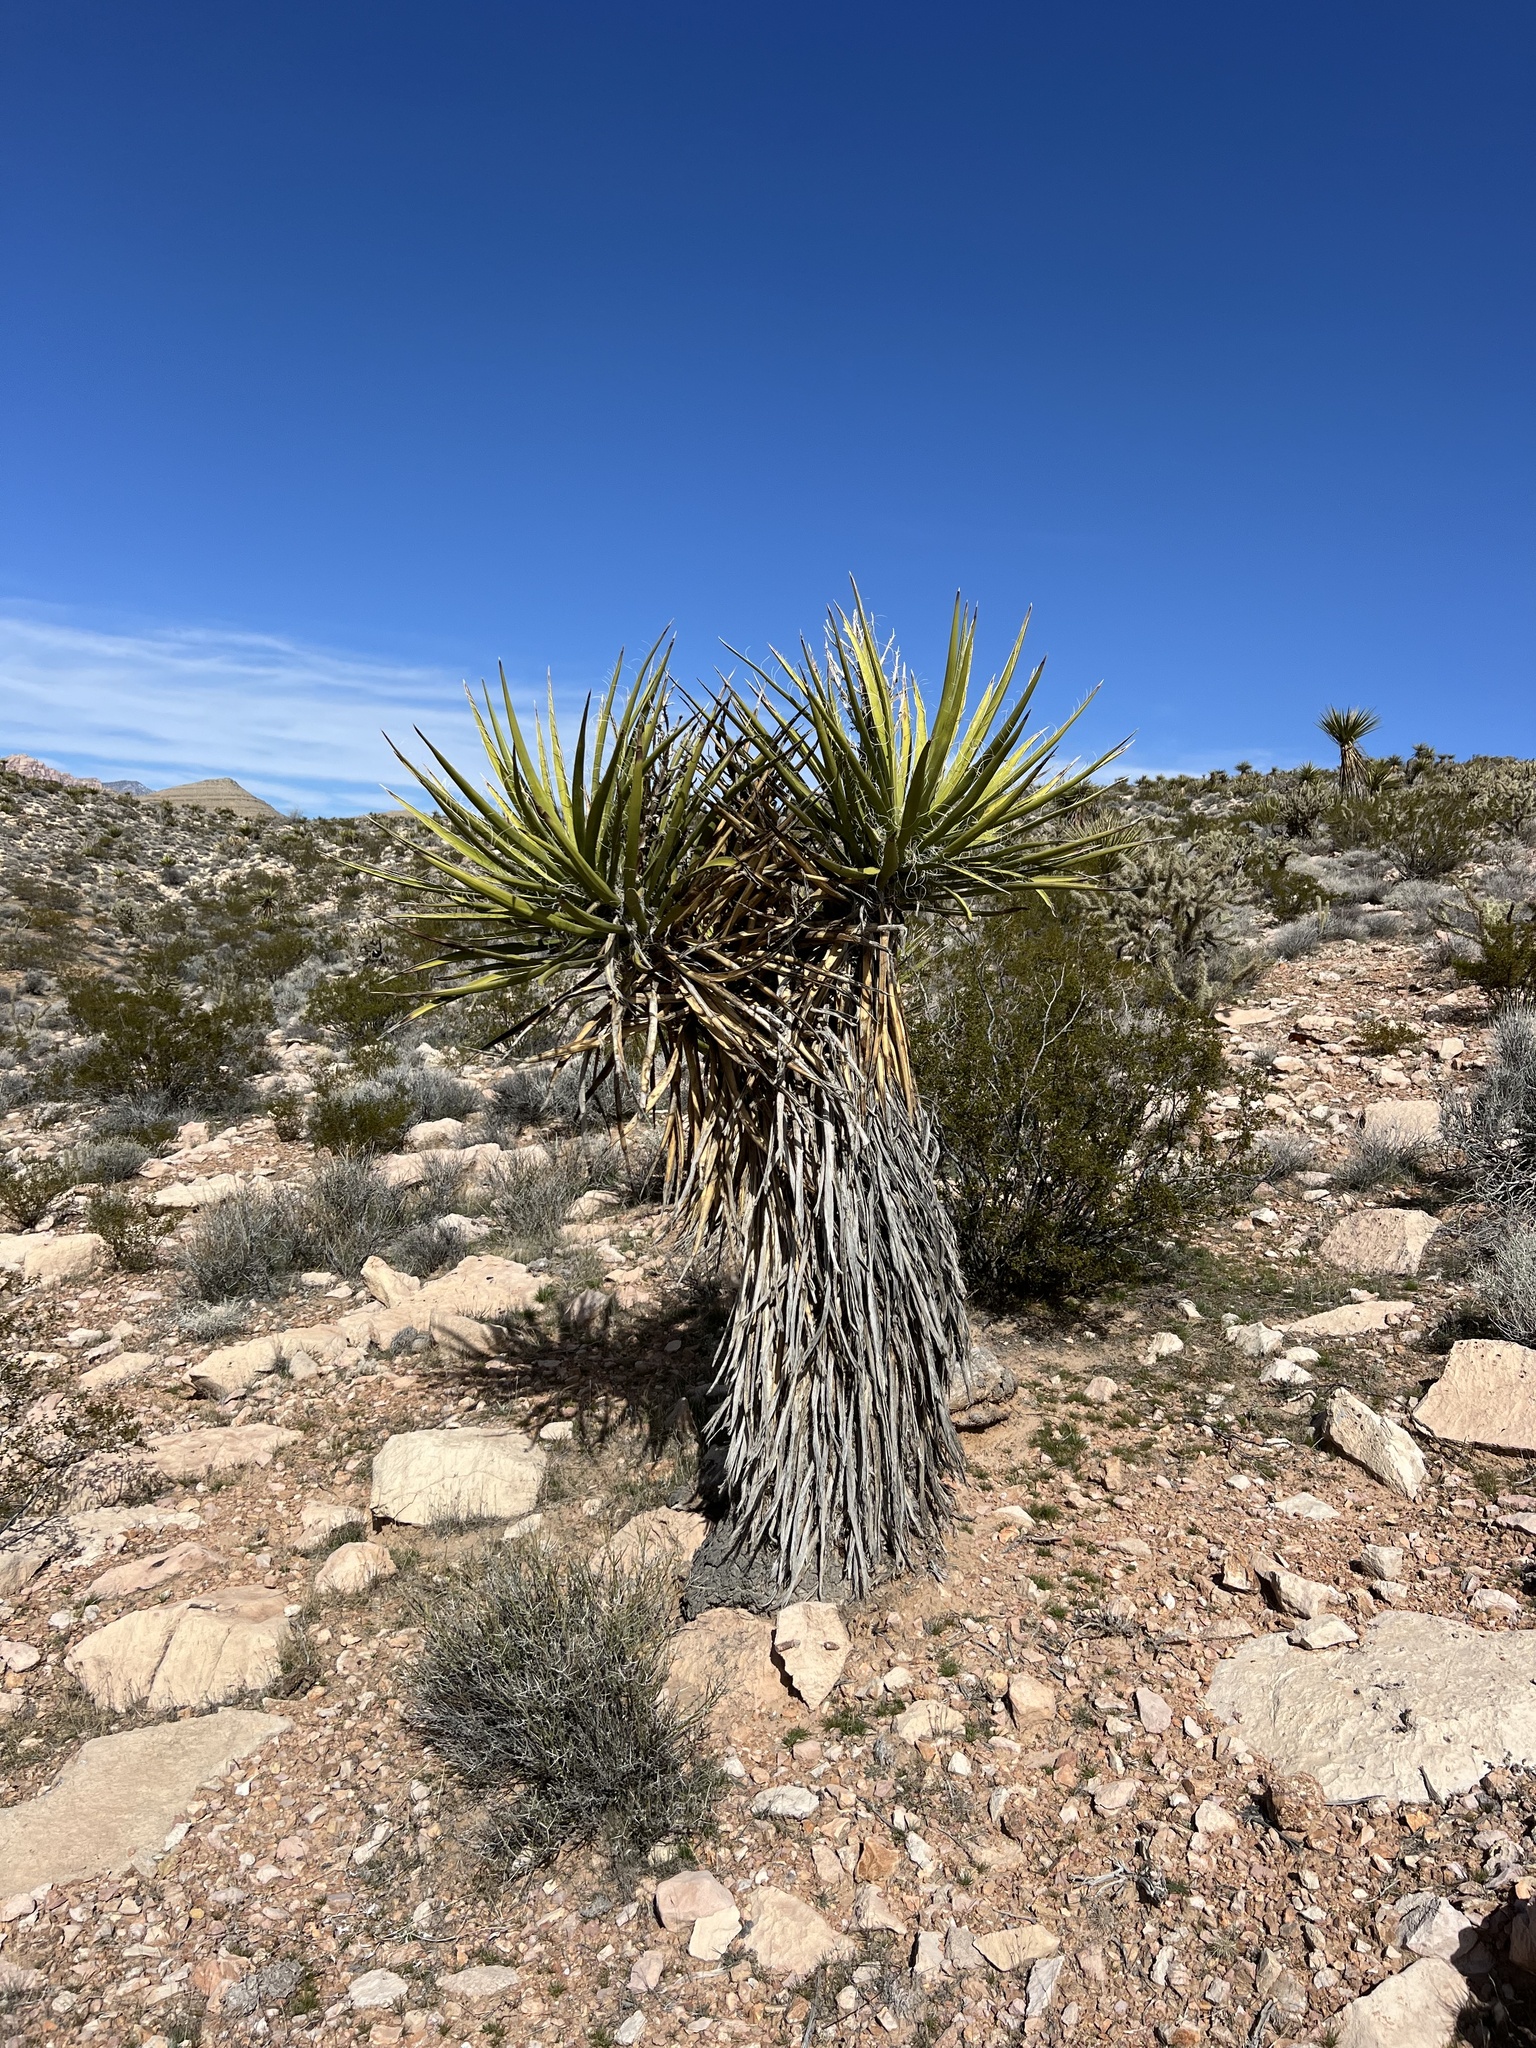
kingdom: Plantae
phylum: Tracheophyta
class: Liliopsida
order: Asparagales
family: Asparagaceae
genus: Yucca
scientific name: Yucca schidigera
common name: Mojave yucca
